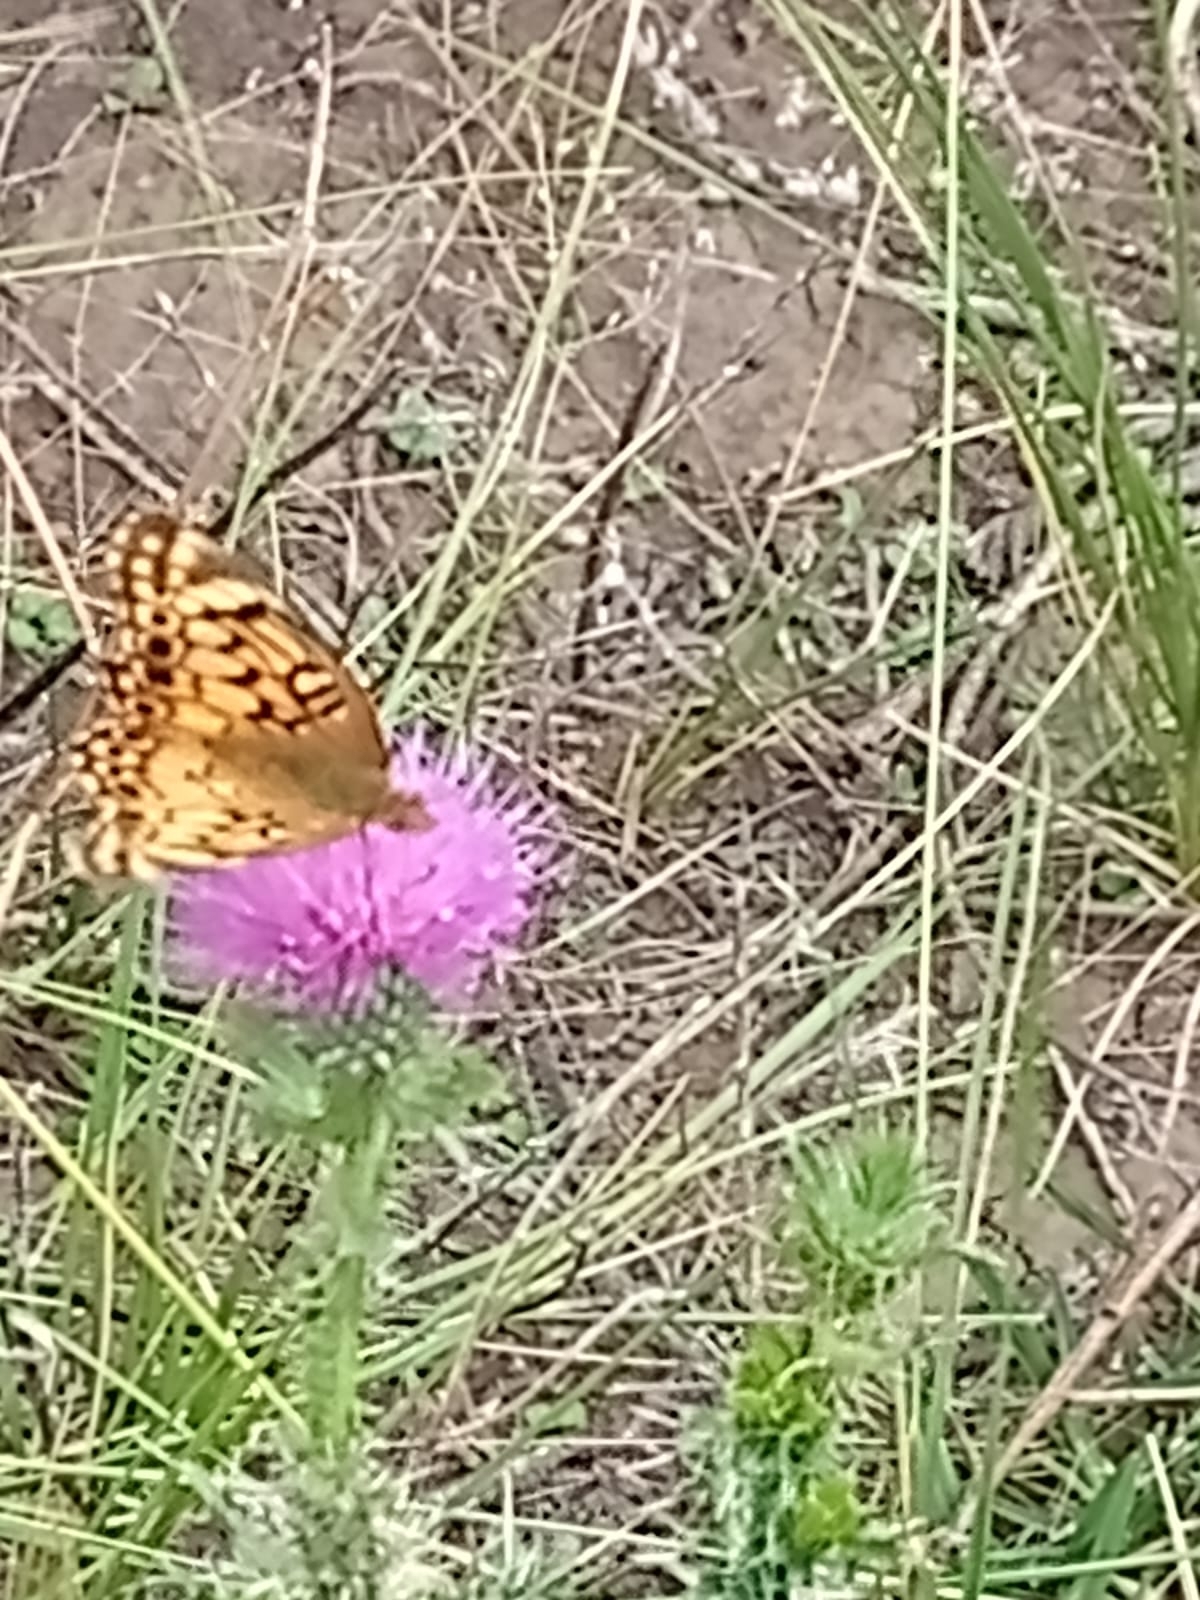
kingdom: Animalia
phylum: Arthropoda
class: Insecta
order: Lepidoptera
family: Nymphalidae
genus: Euptoieta
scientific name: Euptoieta hortensia
